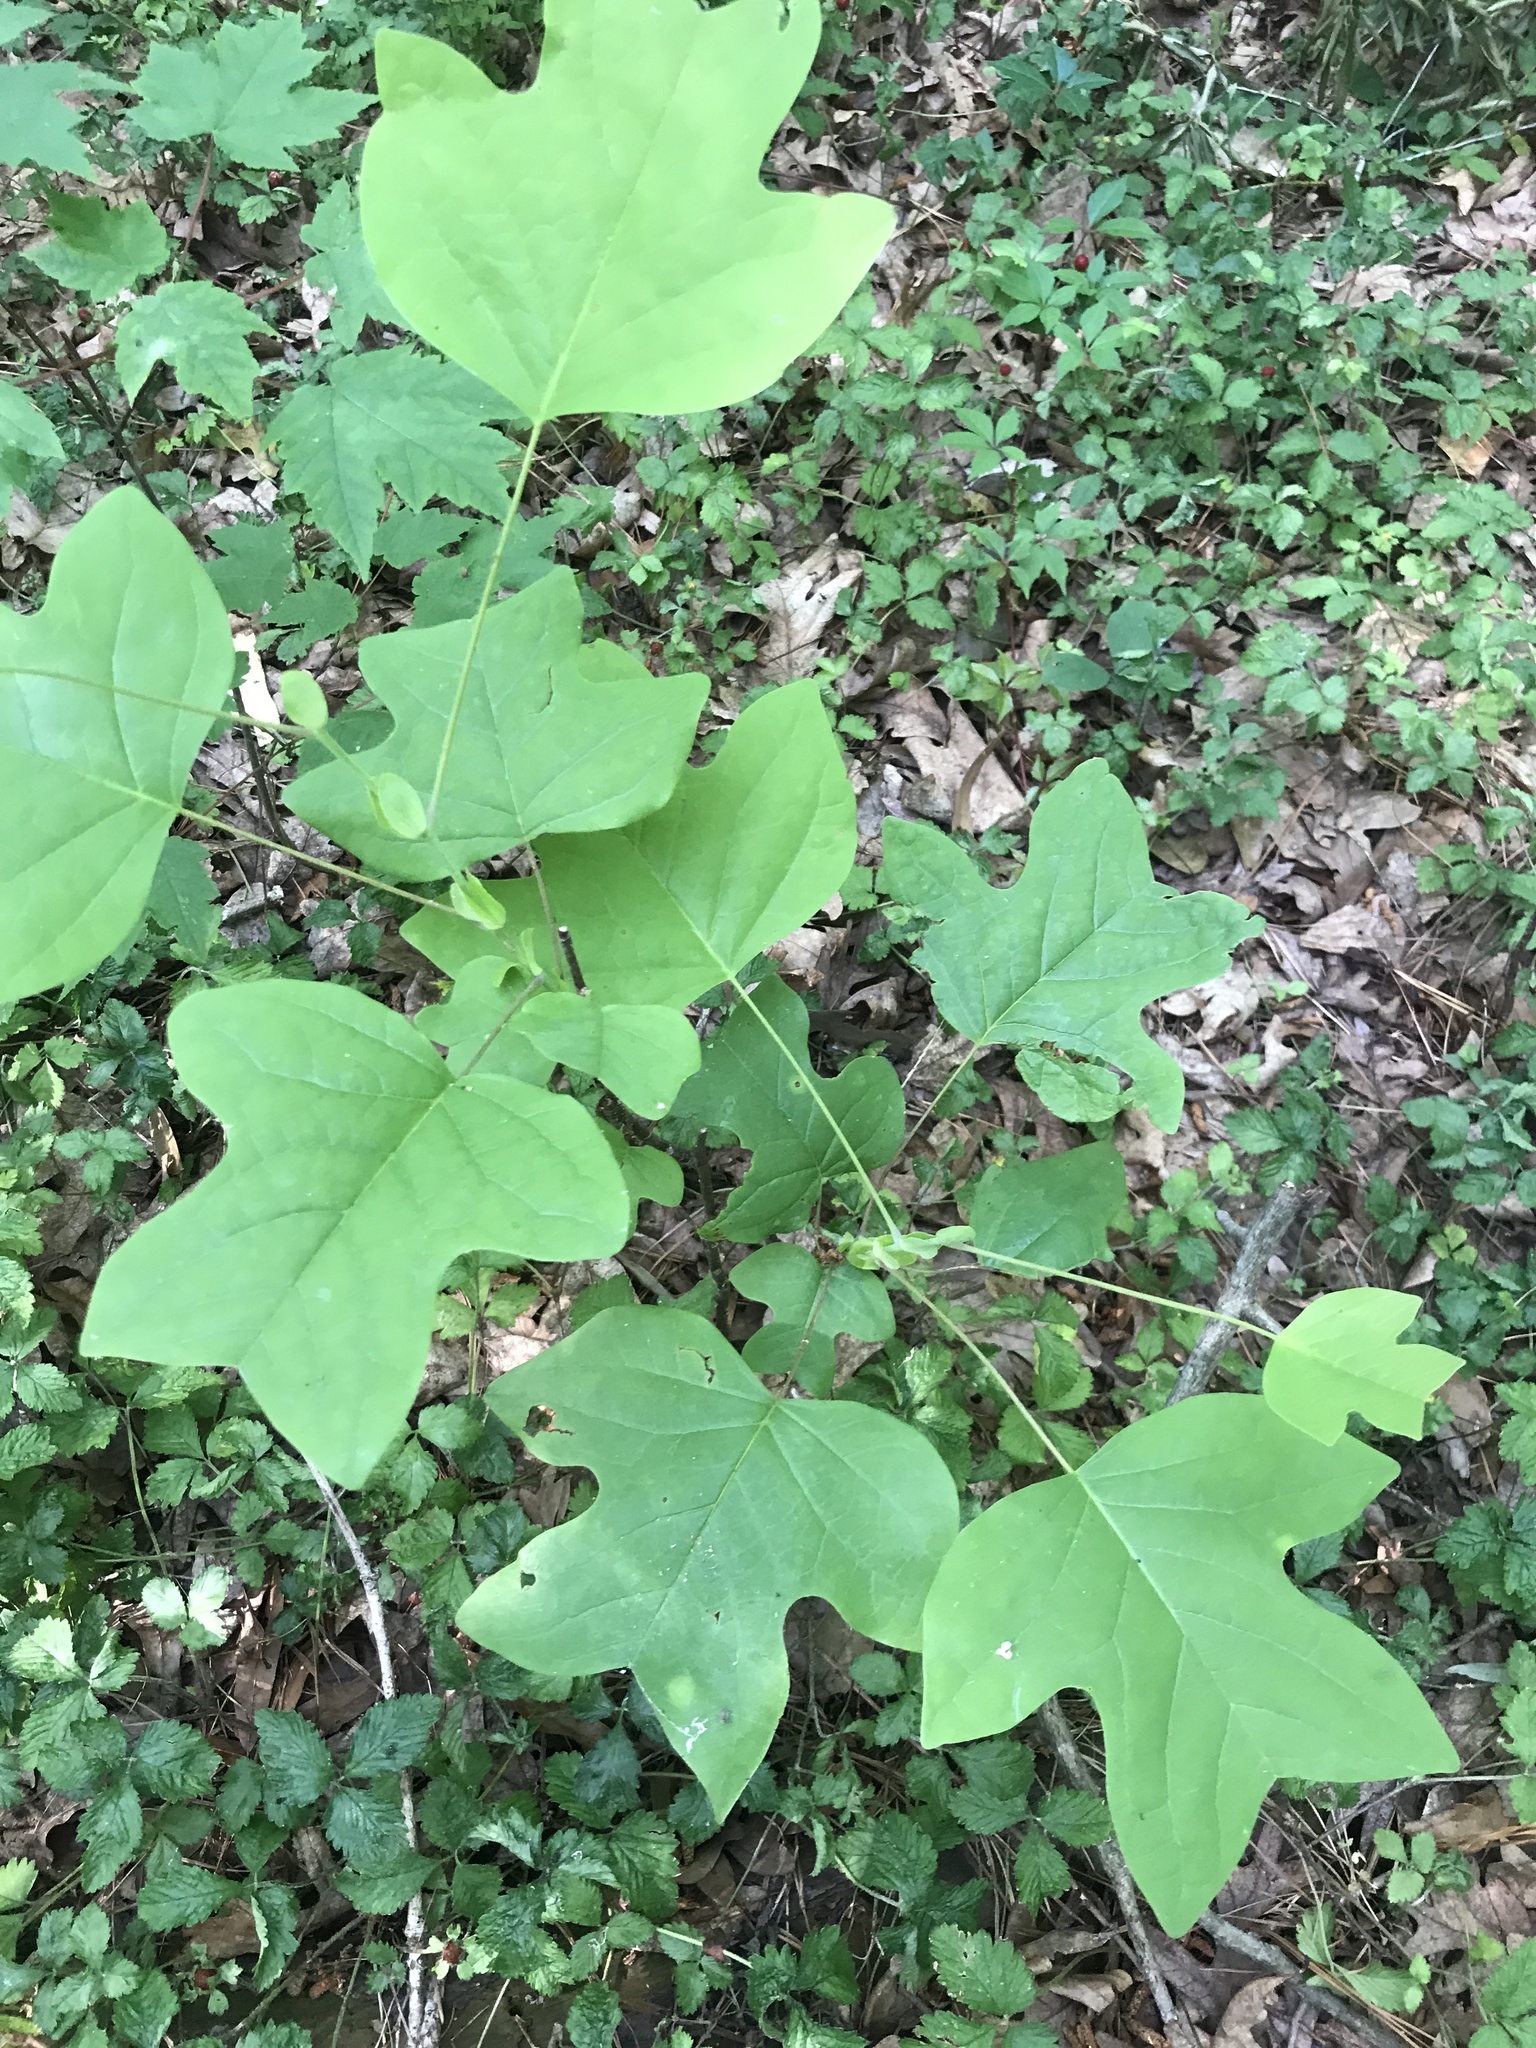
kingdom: Plantae
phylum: Tracheophyta
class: Magnoliopsida
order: Magnoliales
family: Magnoliaceae
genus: Liriodendron
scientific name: Liriodendron tulipifera
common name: Tulip tree
